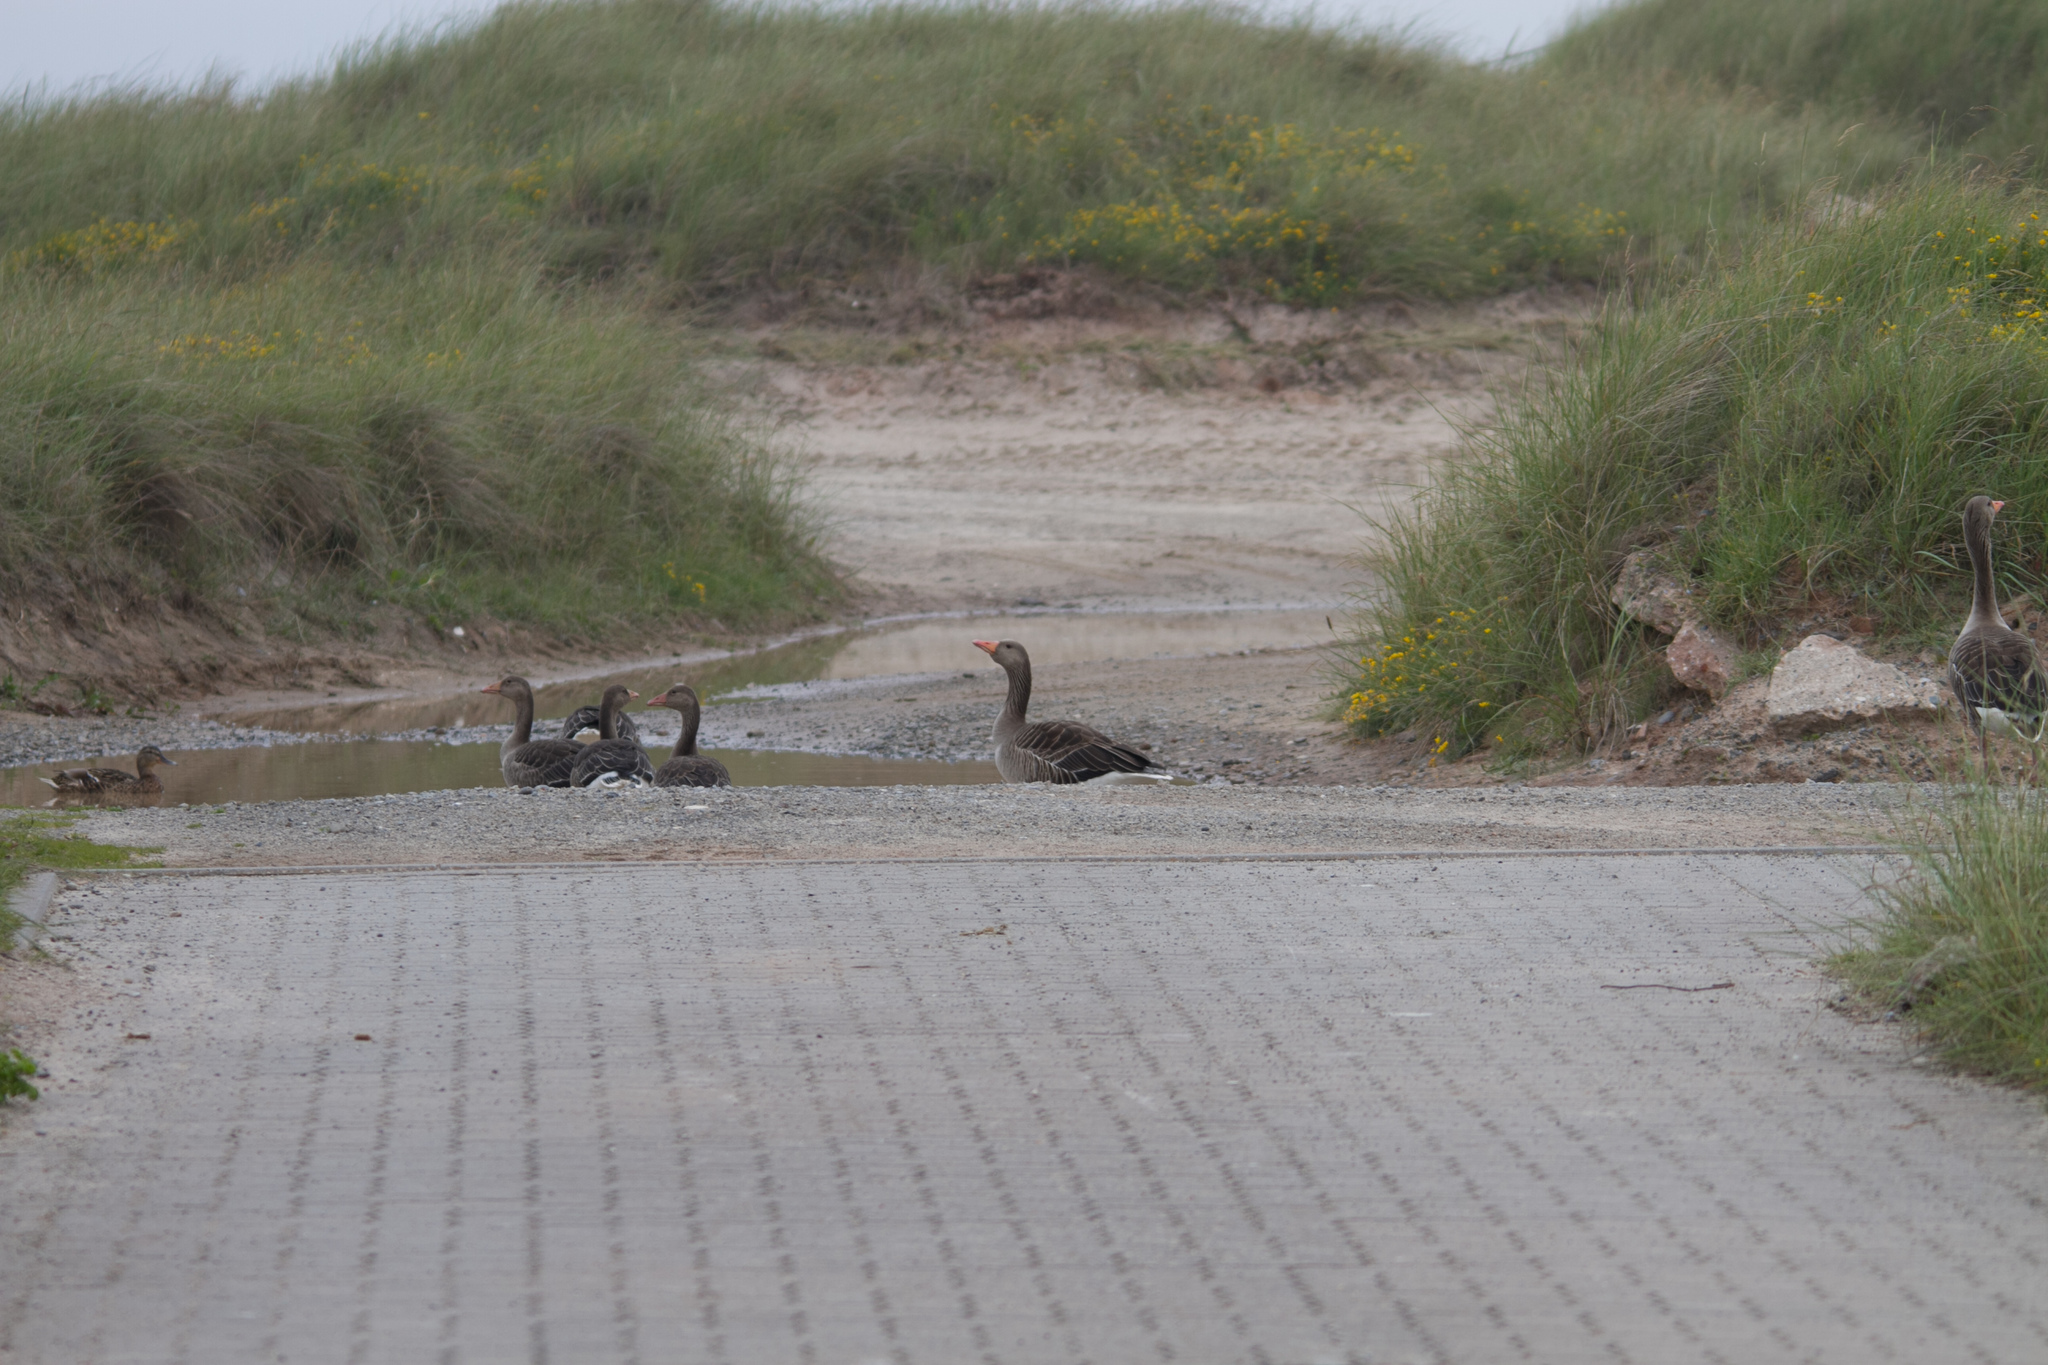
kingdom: Animalia
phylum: Chordata
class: Aves
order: Anseriformes
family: Anatidae
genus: Anser
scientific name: Anser anser
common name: Greylag goose
